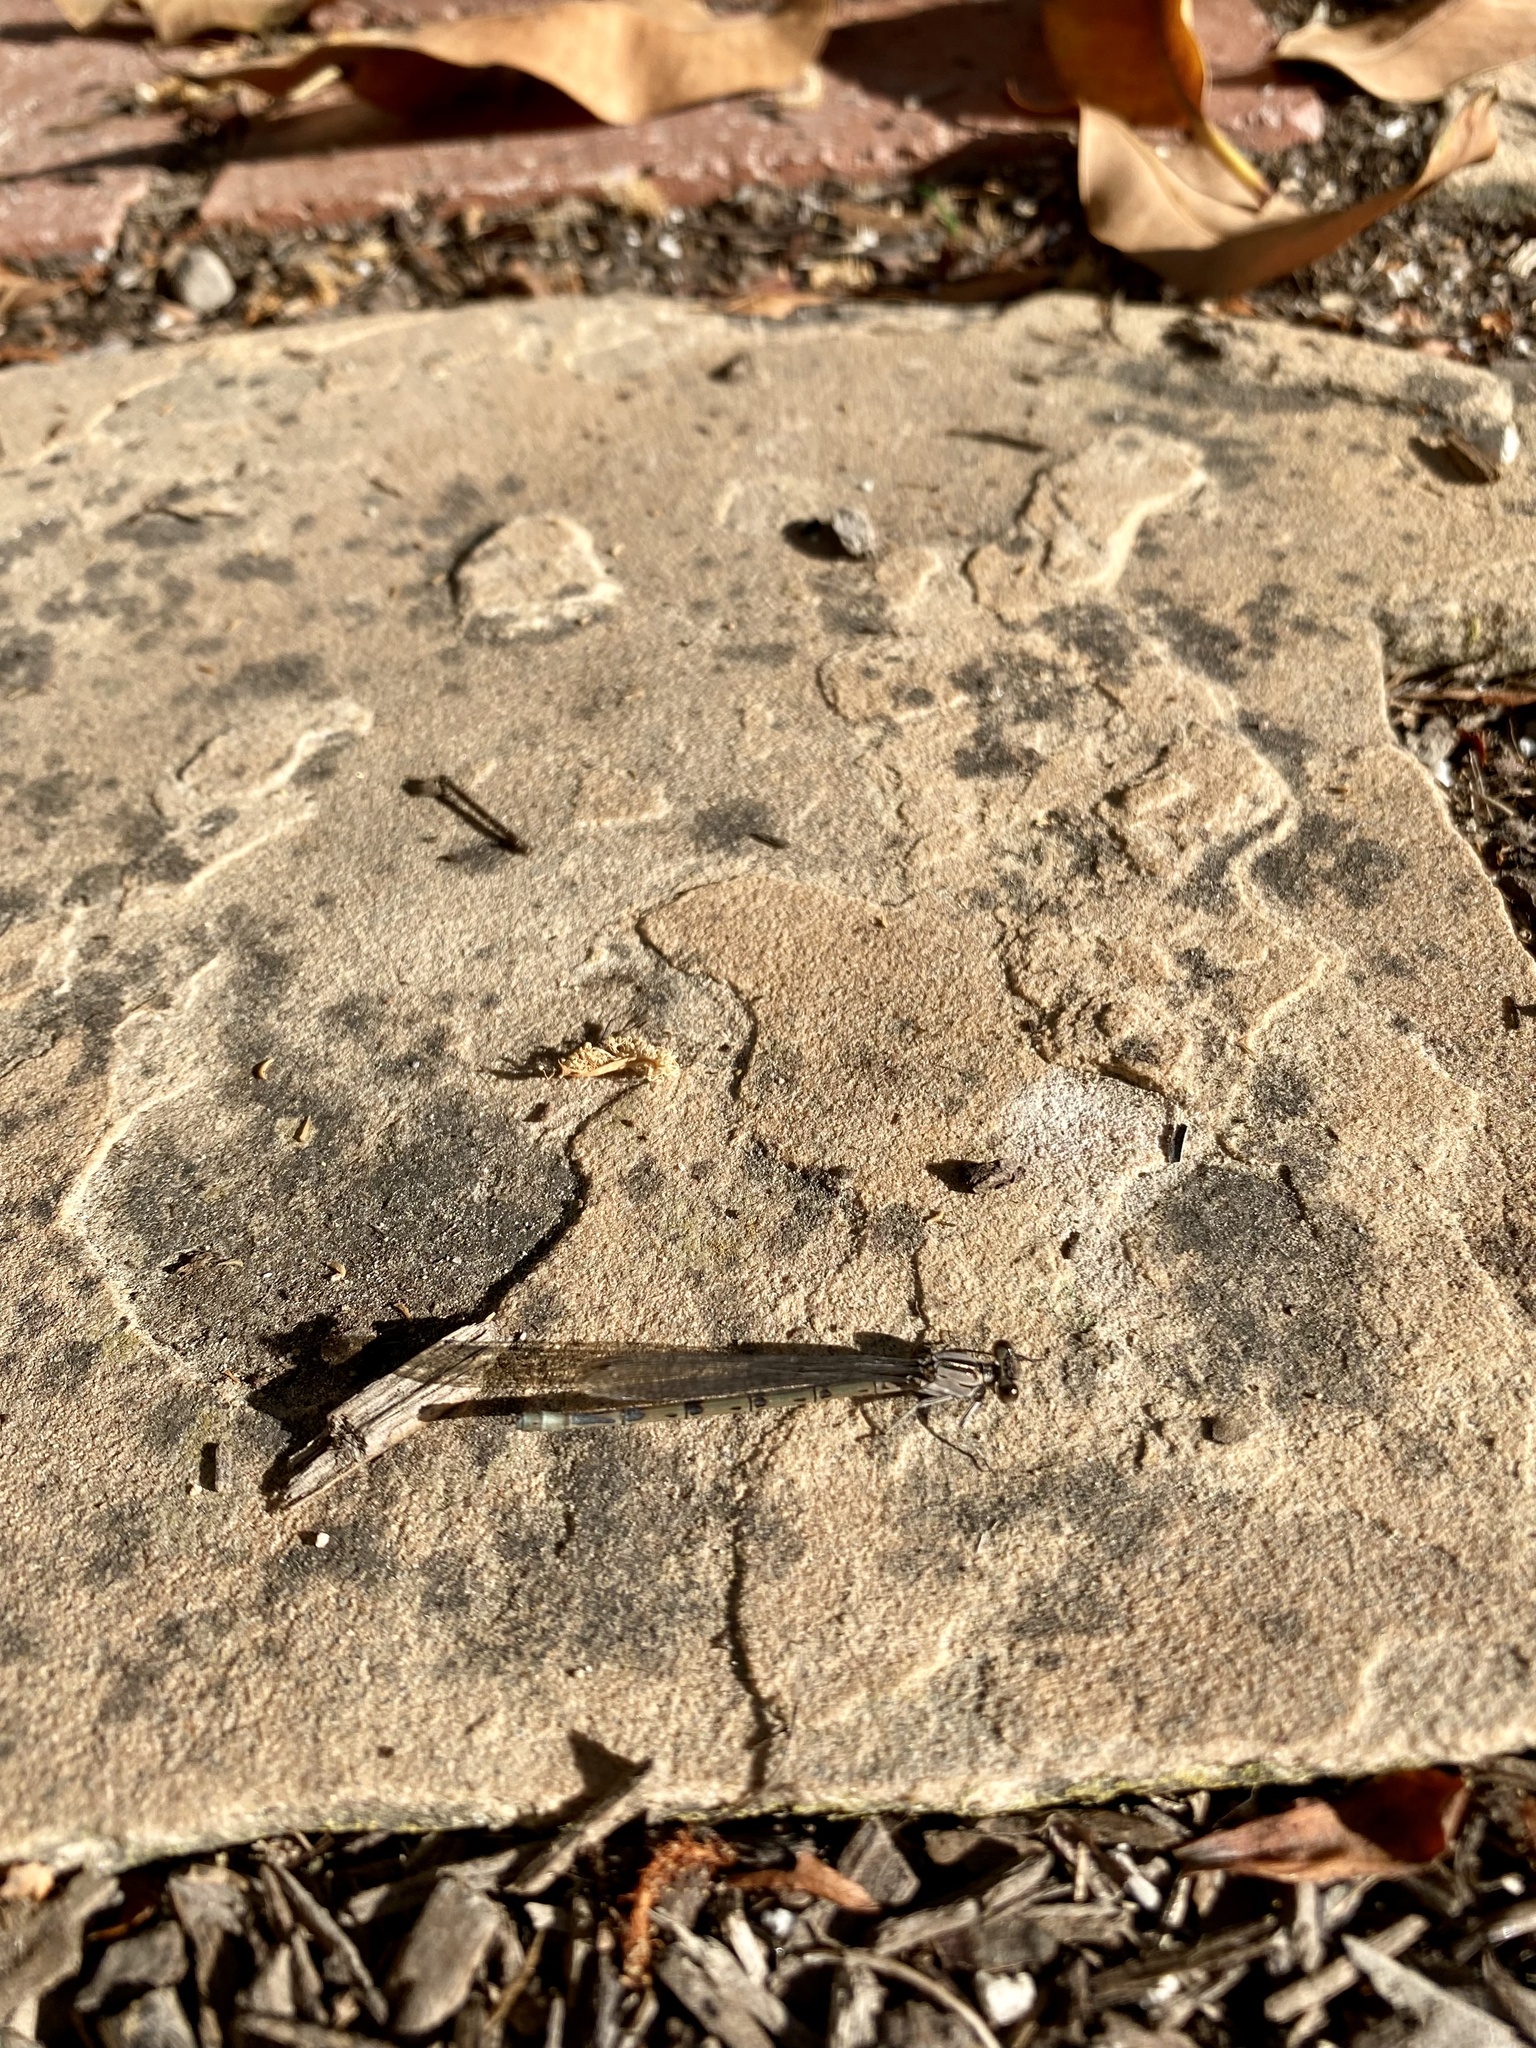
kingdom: Animalia
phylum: Arthropoda
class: Insecta
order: Odonata
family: Coenagrionidae
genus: Argia
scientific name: Argia vivida
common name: Vivid dancer
